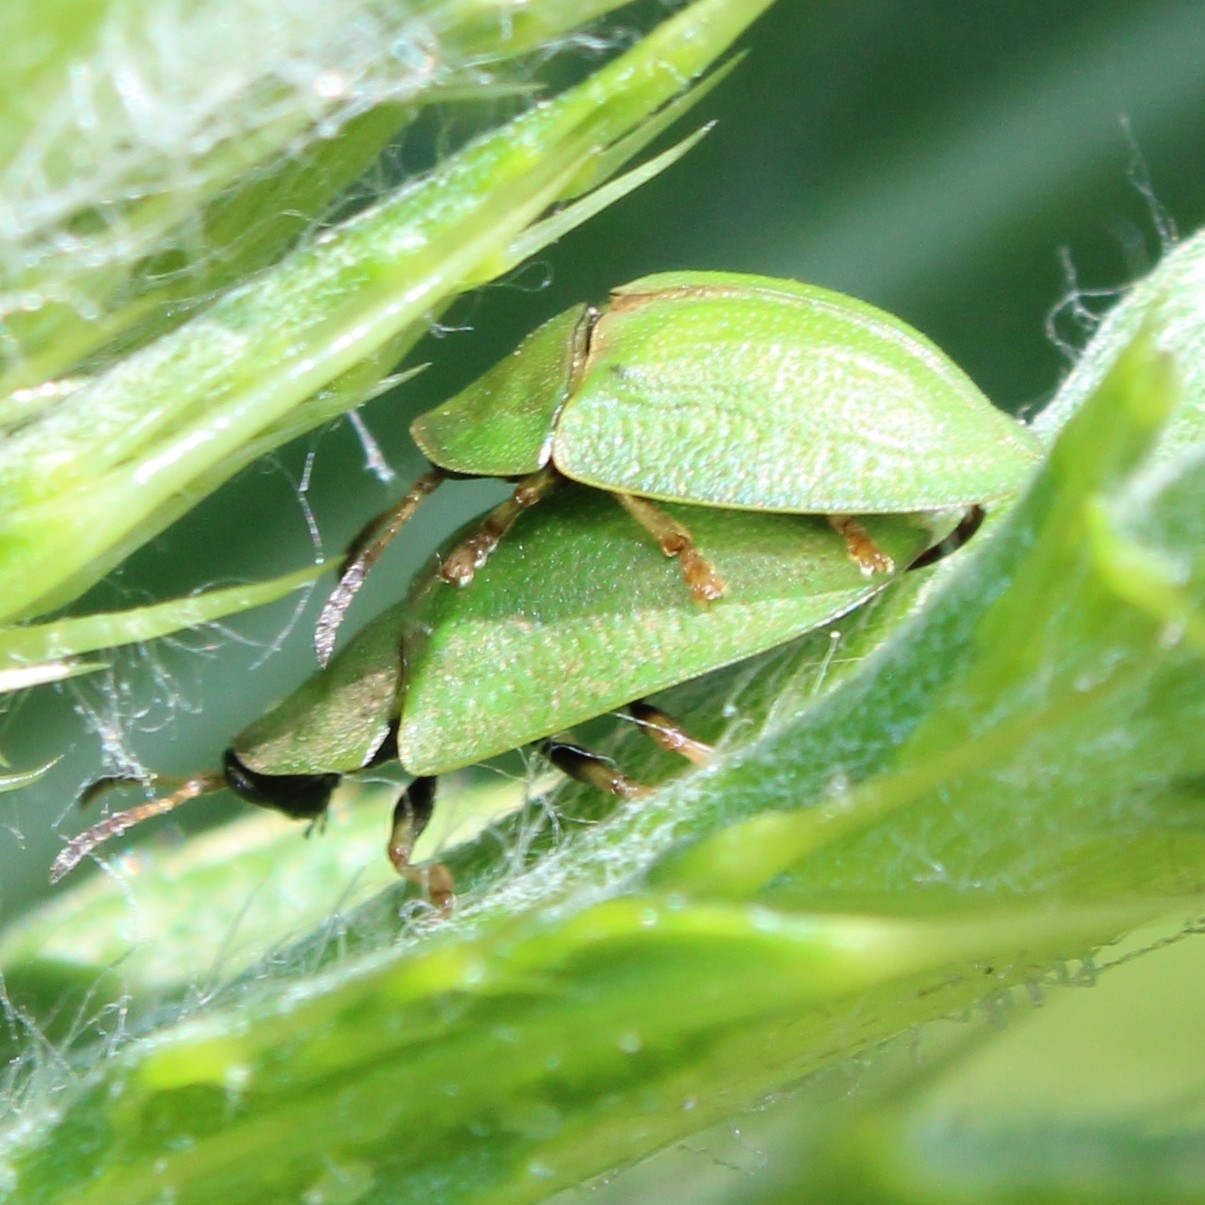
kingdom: Animalia
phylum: Arthropoda
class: Insecta
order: Coleoptera
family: Chrysomelidae
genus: Cassida
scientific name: Cassida rubiginosa
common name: Thistle tortoise beetle
